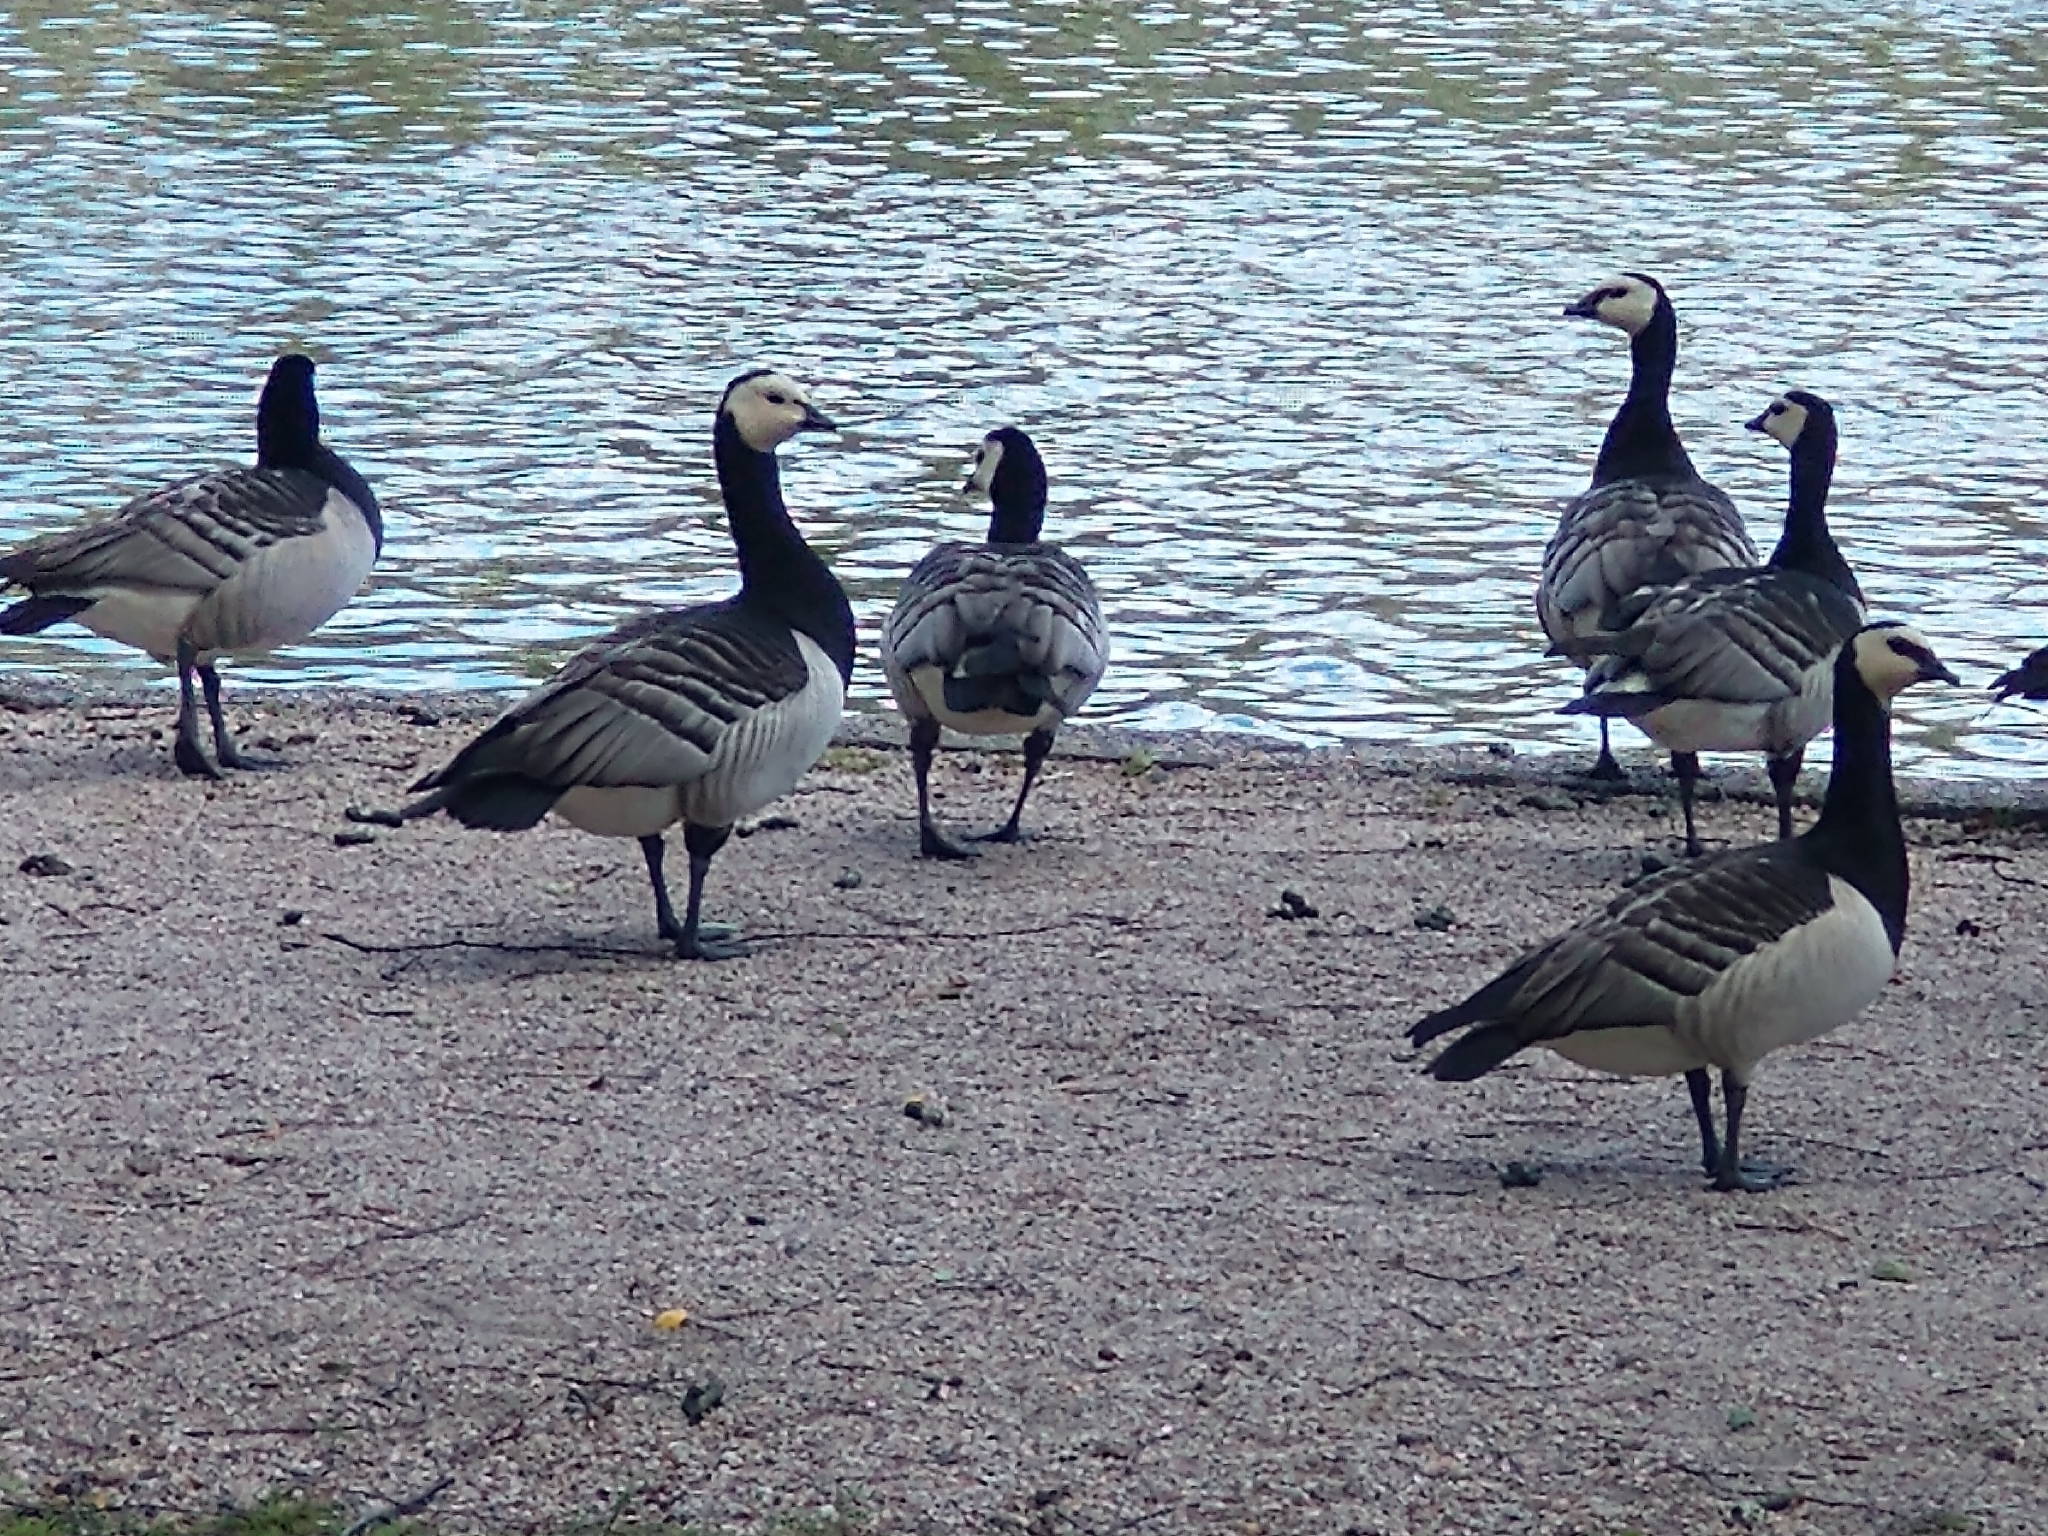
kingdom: Animalia
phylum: Chordata
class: Aves
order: Anseriformes
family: Anatidae
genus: Branta
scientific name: Branta leucopsis
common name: Barnacle goose
